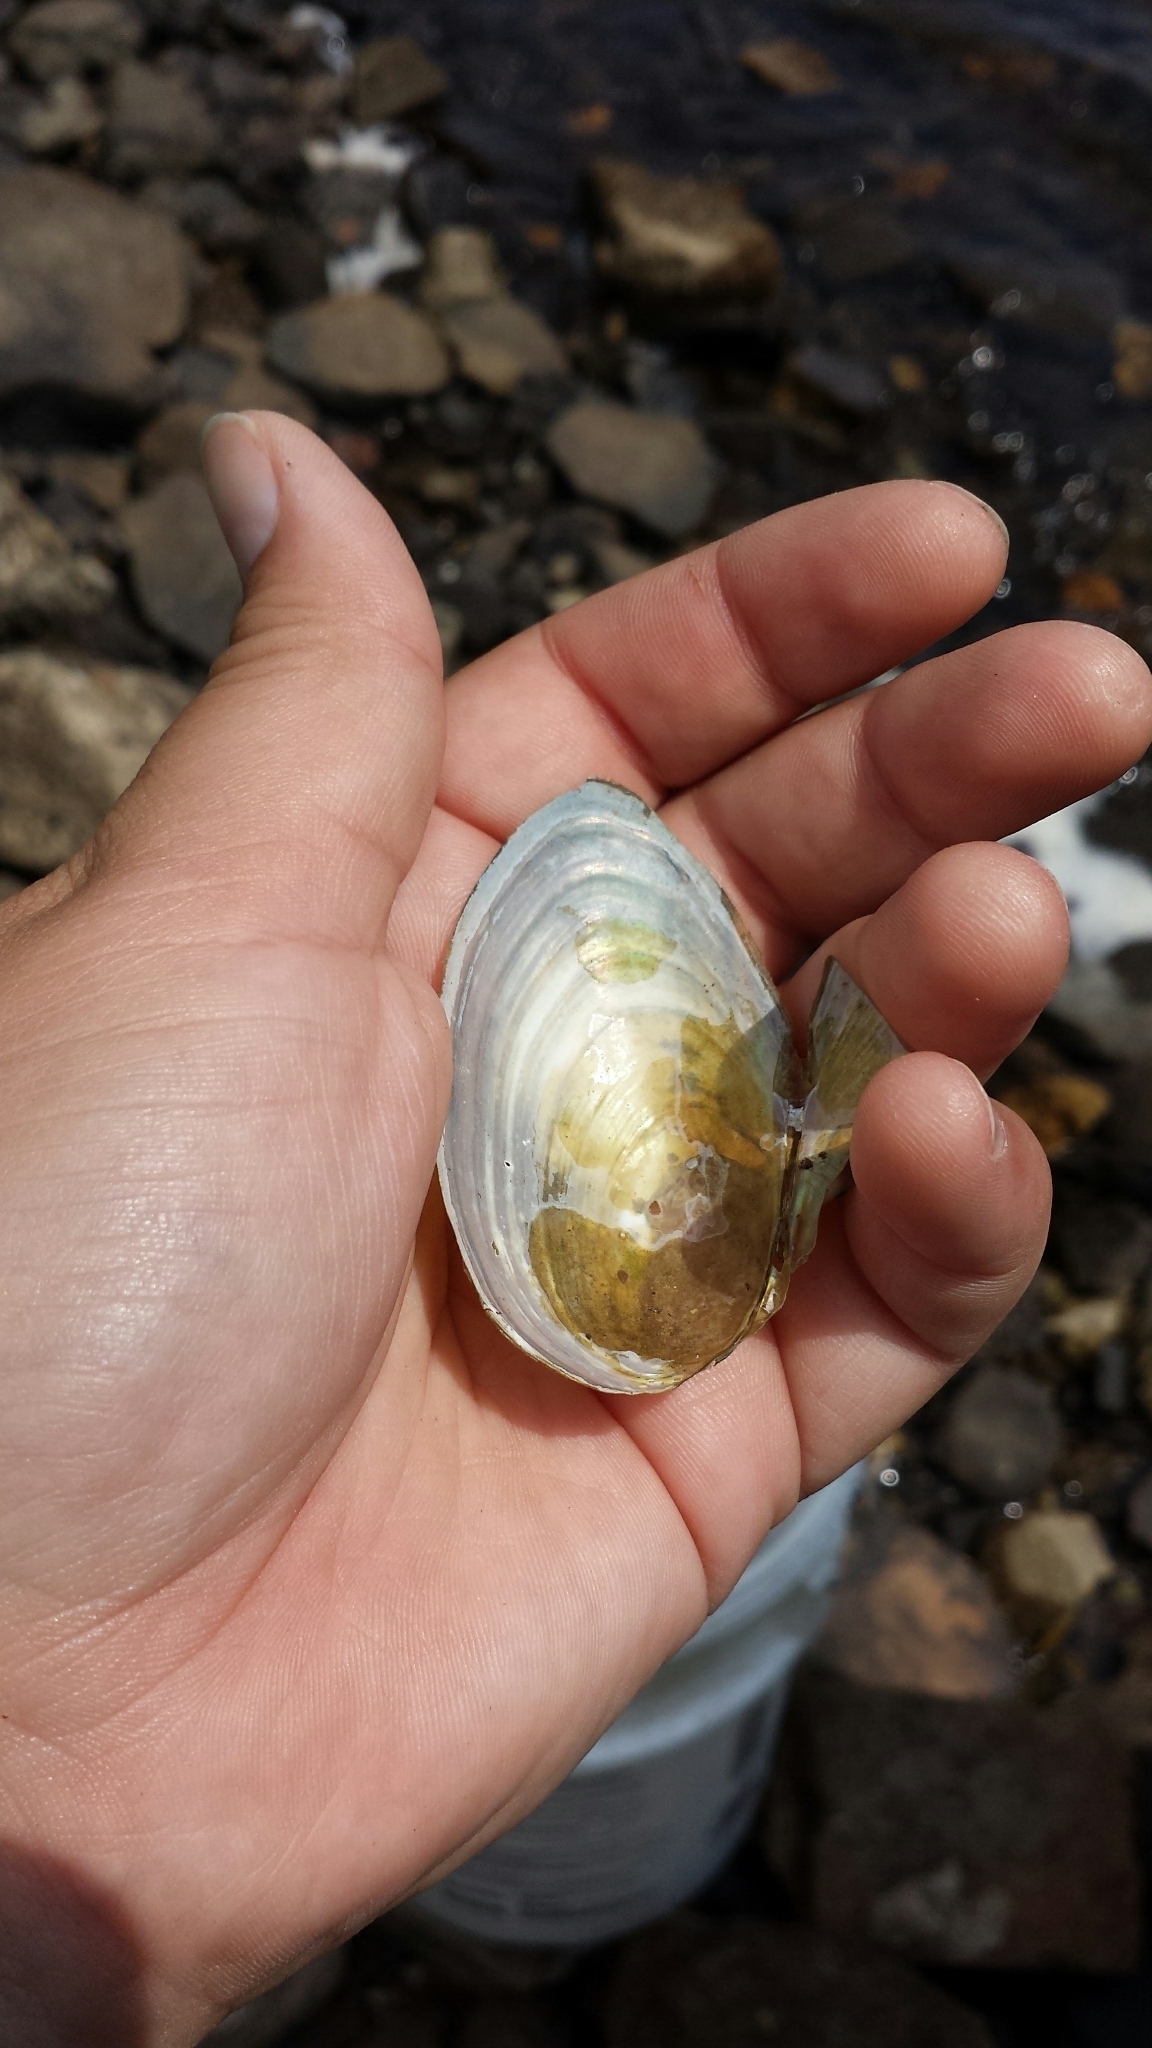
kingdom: Animalia
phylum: Mollusca
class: Bivalvia
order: Unionida
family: Unionidae
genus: Pyganodon
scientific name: Pyganodon cataracta
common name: Eastern floater
